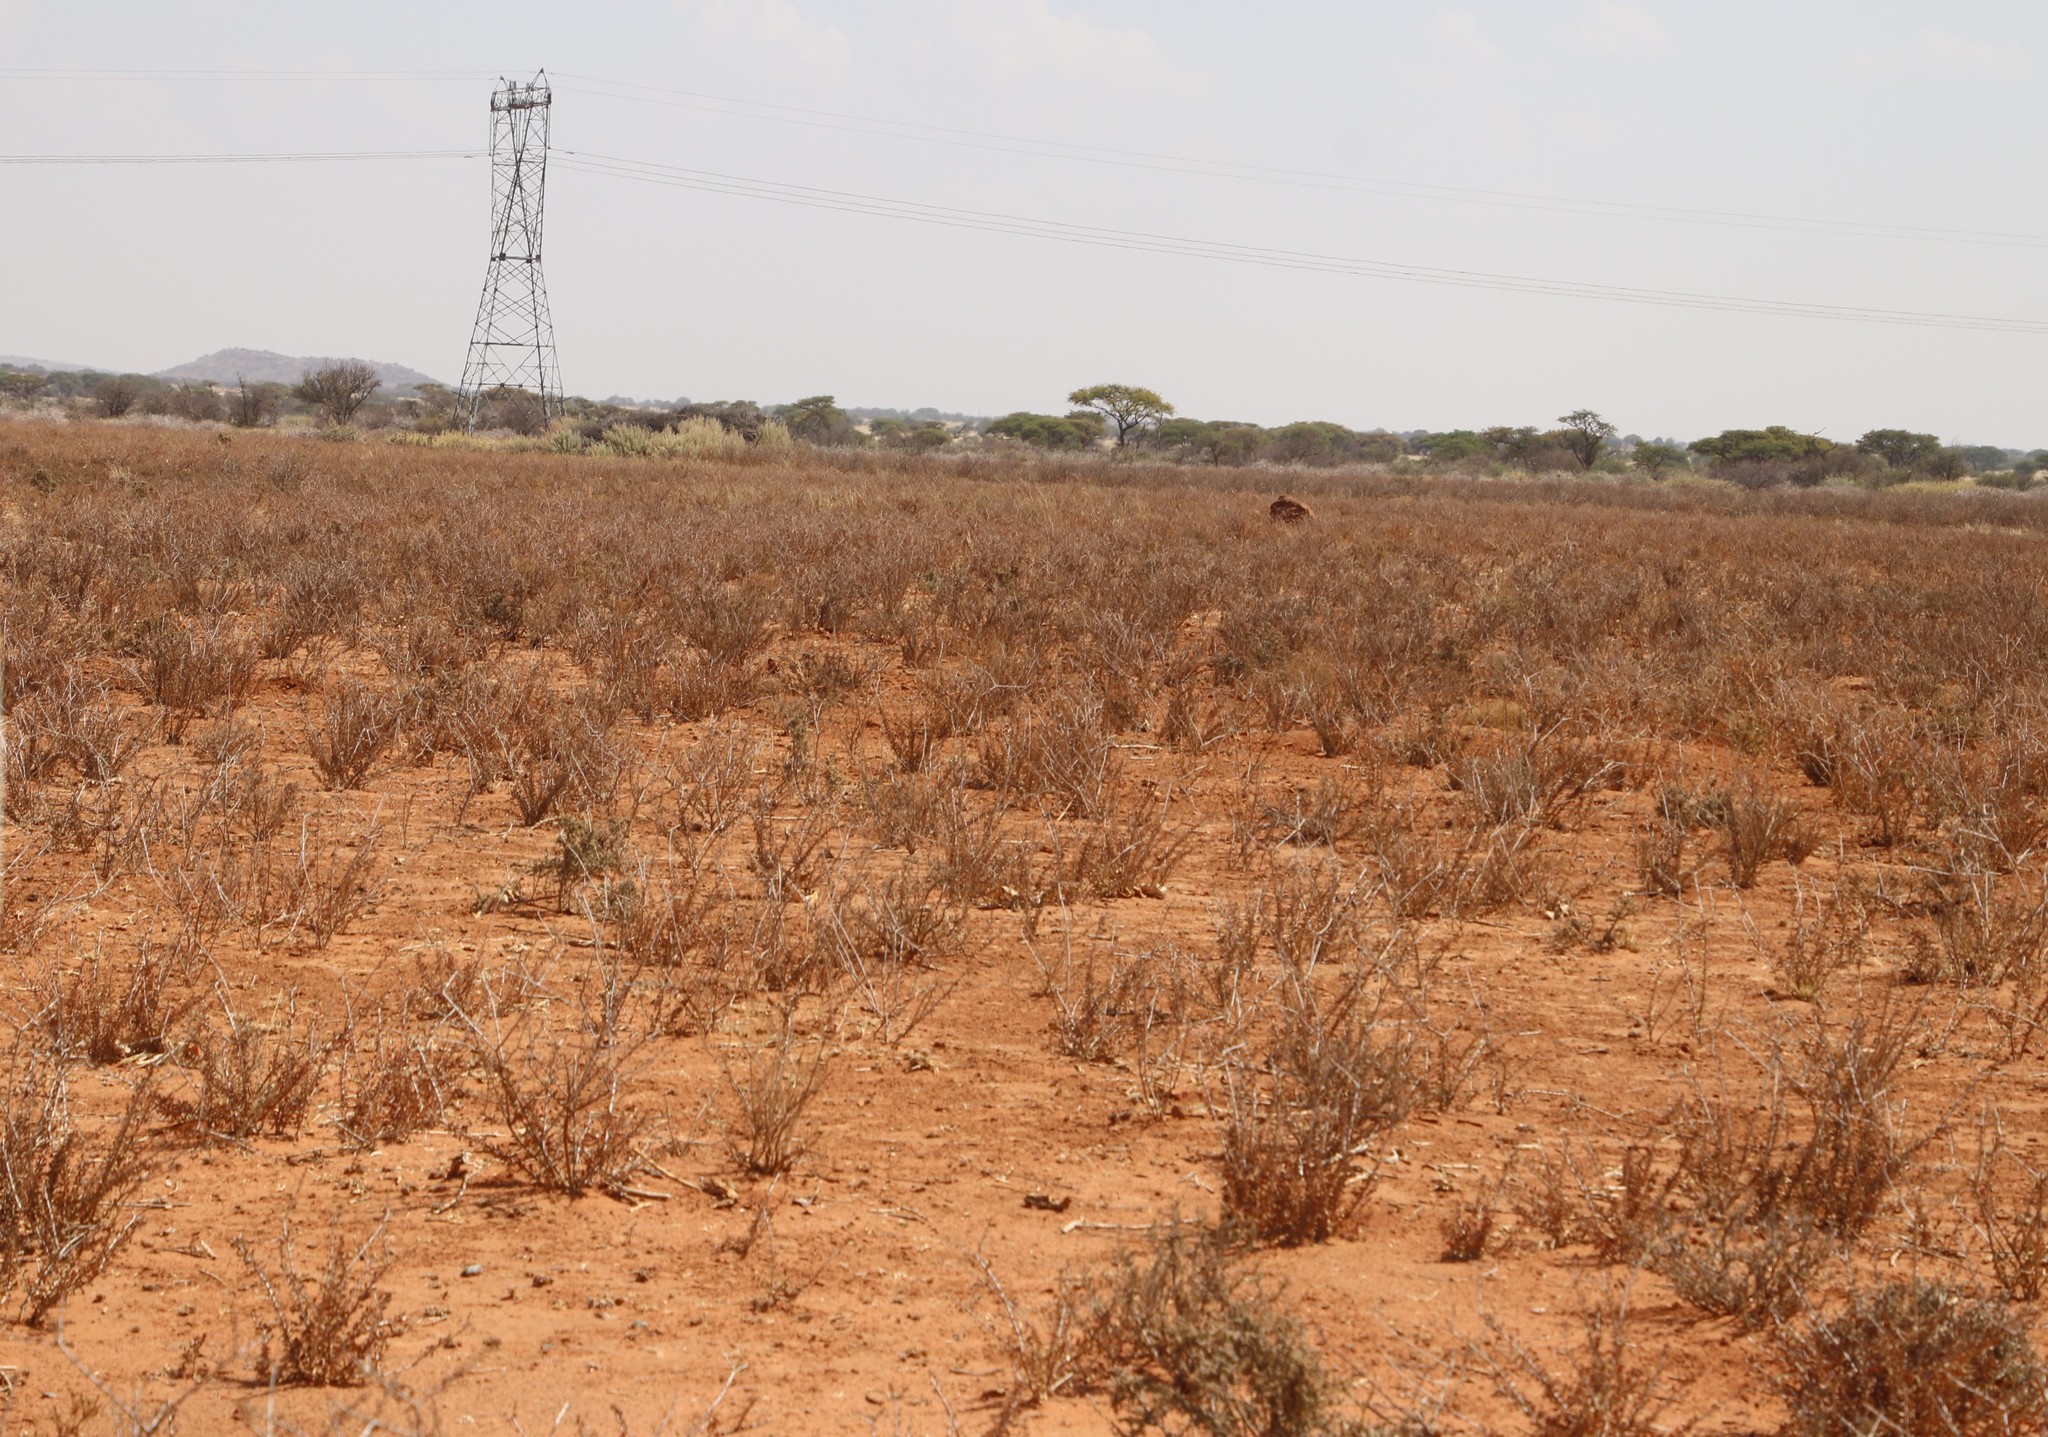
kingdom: Plantae
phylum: Tracheophyta
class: Magnoliopsida
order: Lamiales
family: Bignoniaceae
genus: Rhigozum
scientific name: Rhigozum trichotomum
